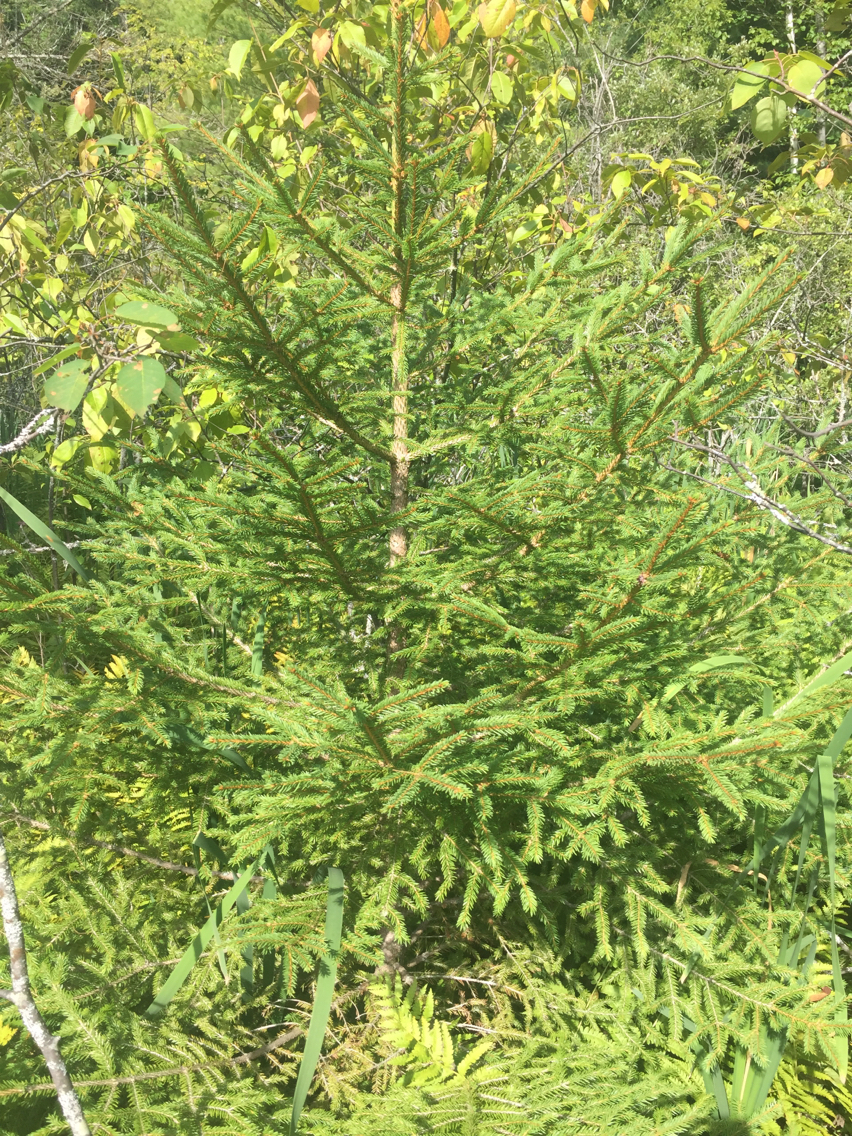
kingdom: Plantae
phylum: Tracheophyta
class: Pinopsida
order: Pinales
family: Pinaceae
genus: Picea
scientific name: Picea rubens
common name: Red spruce
